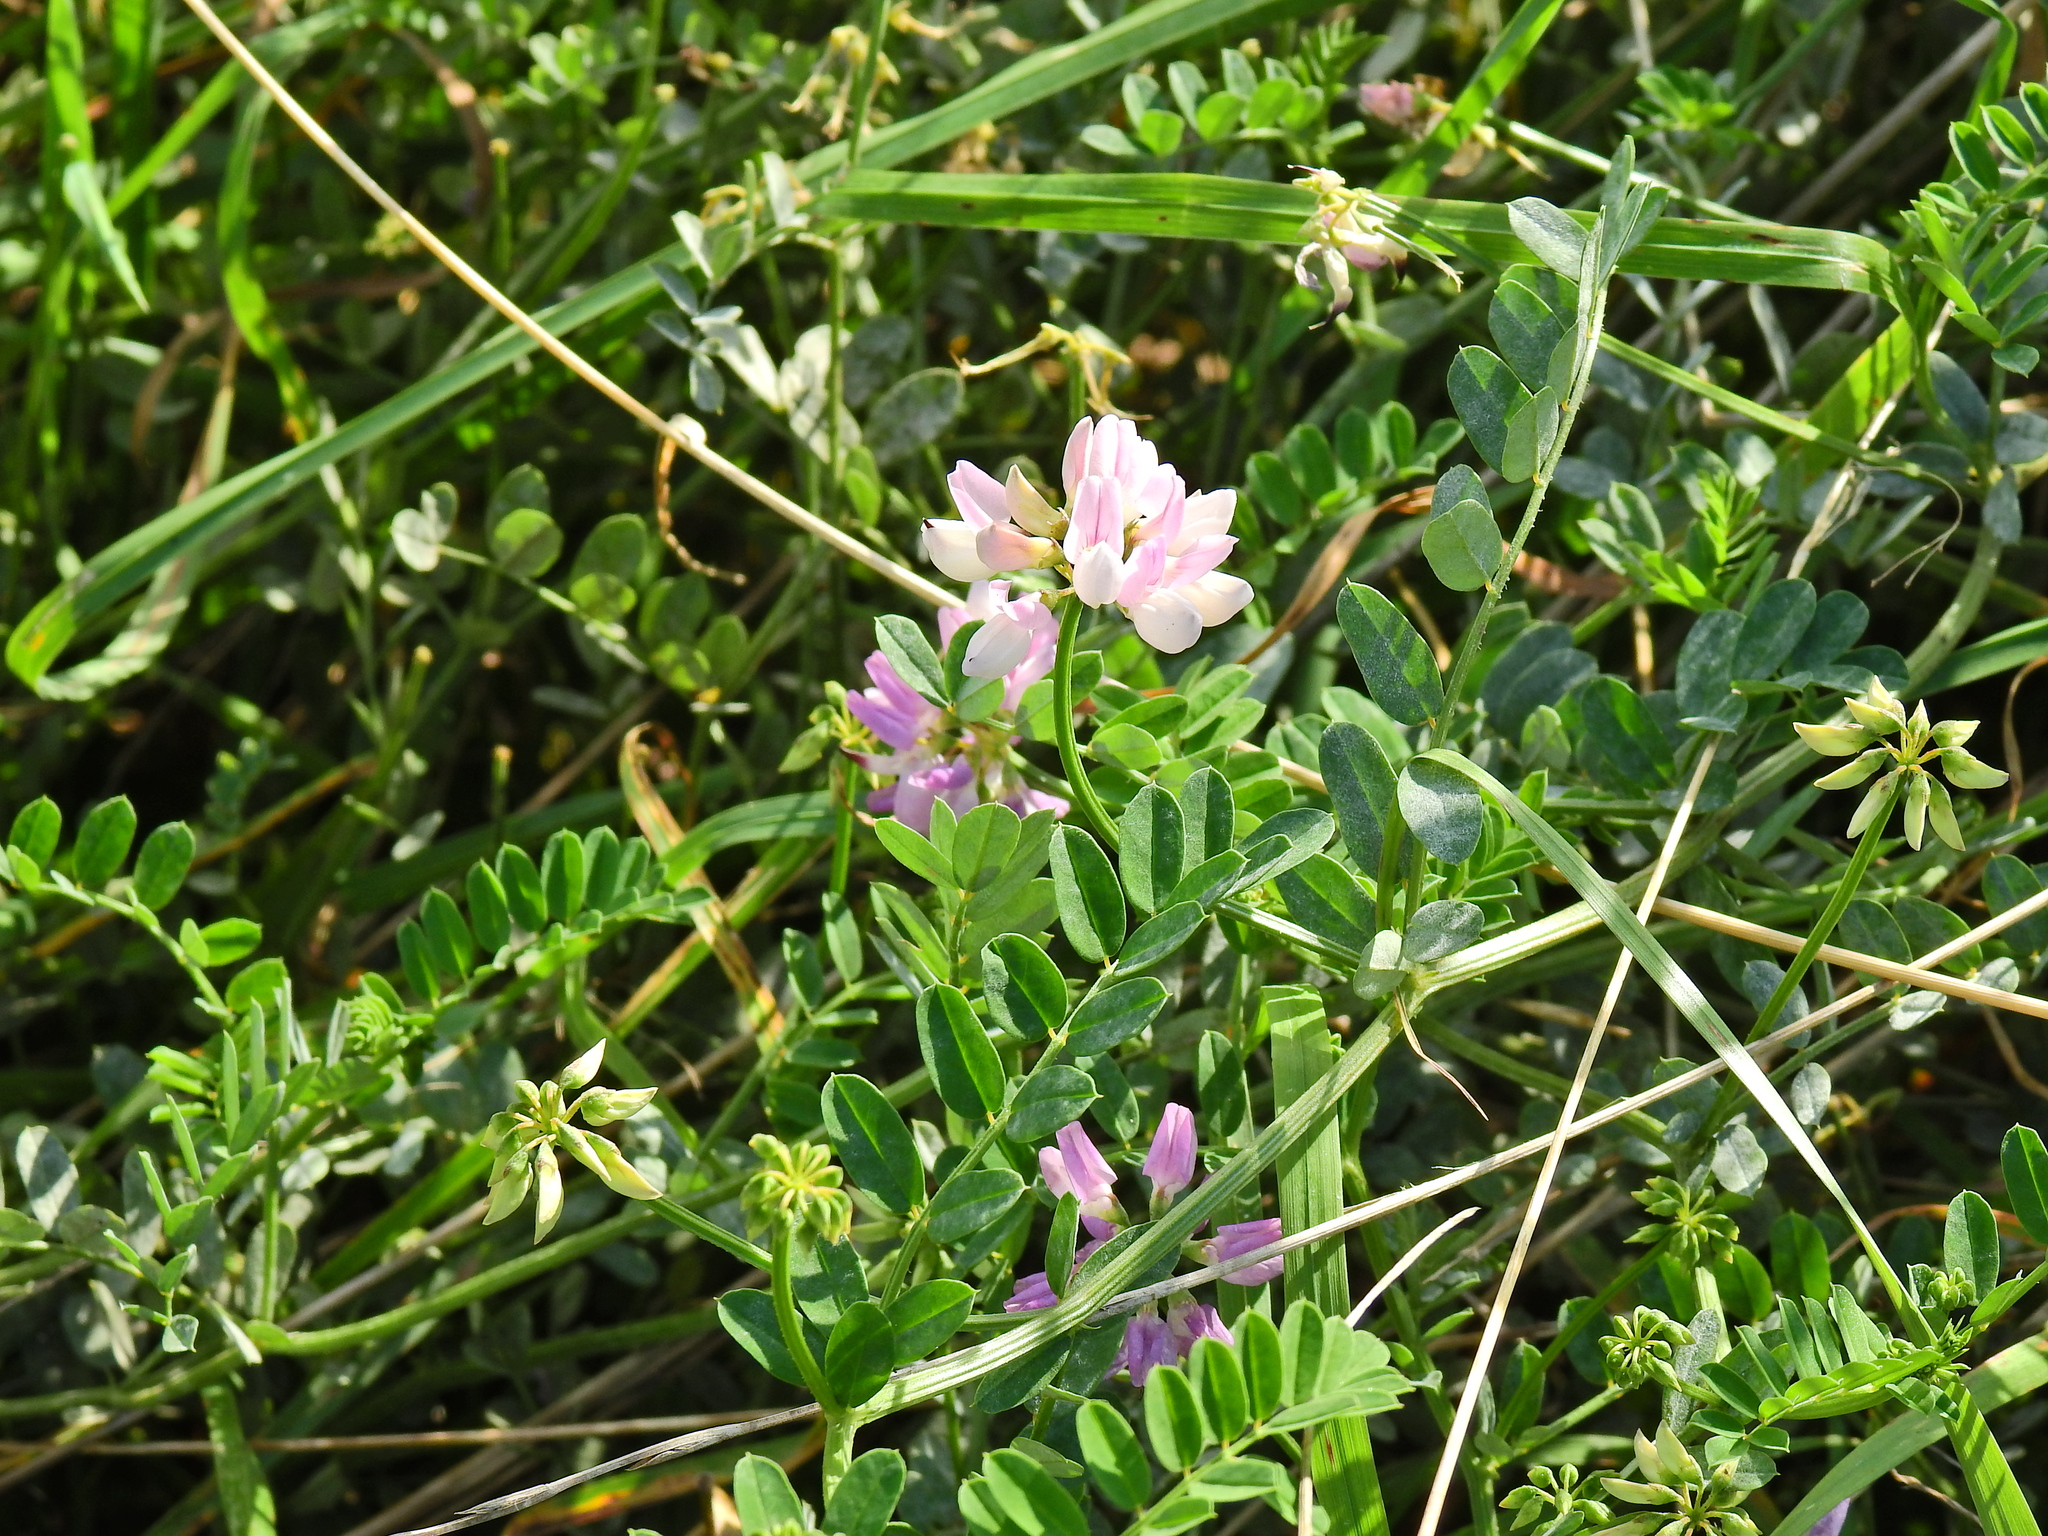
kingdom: Plantae
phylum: Tracheophyta
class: Magnoliopsida
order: Fabales
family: Fabaceae
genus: Coronilla
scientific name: Coronilla varia
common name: Crownvetch
